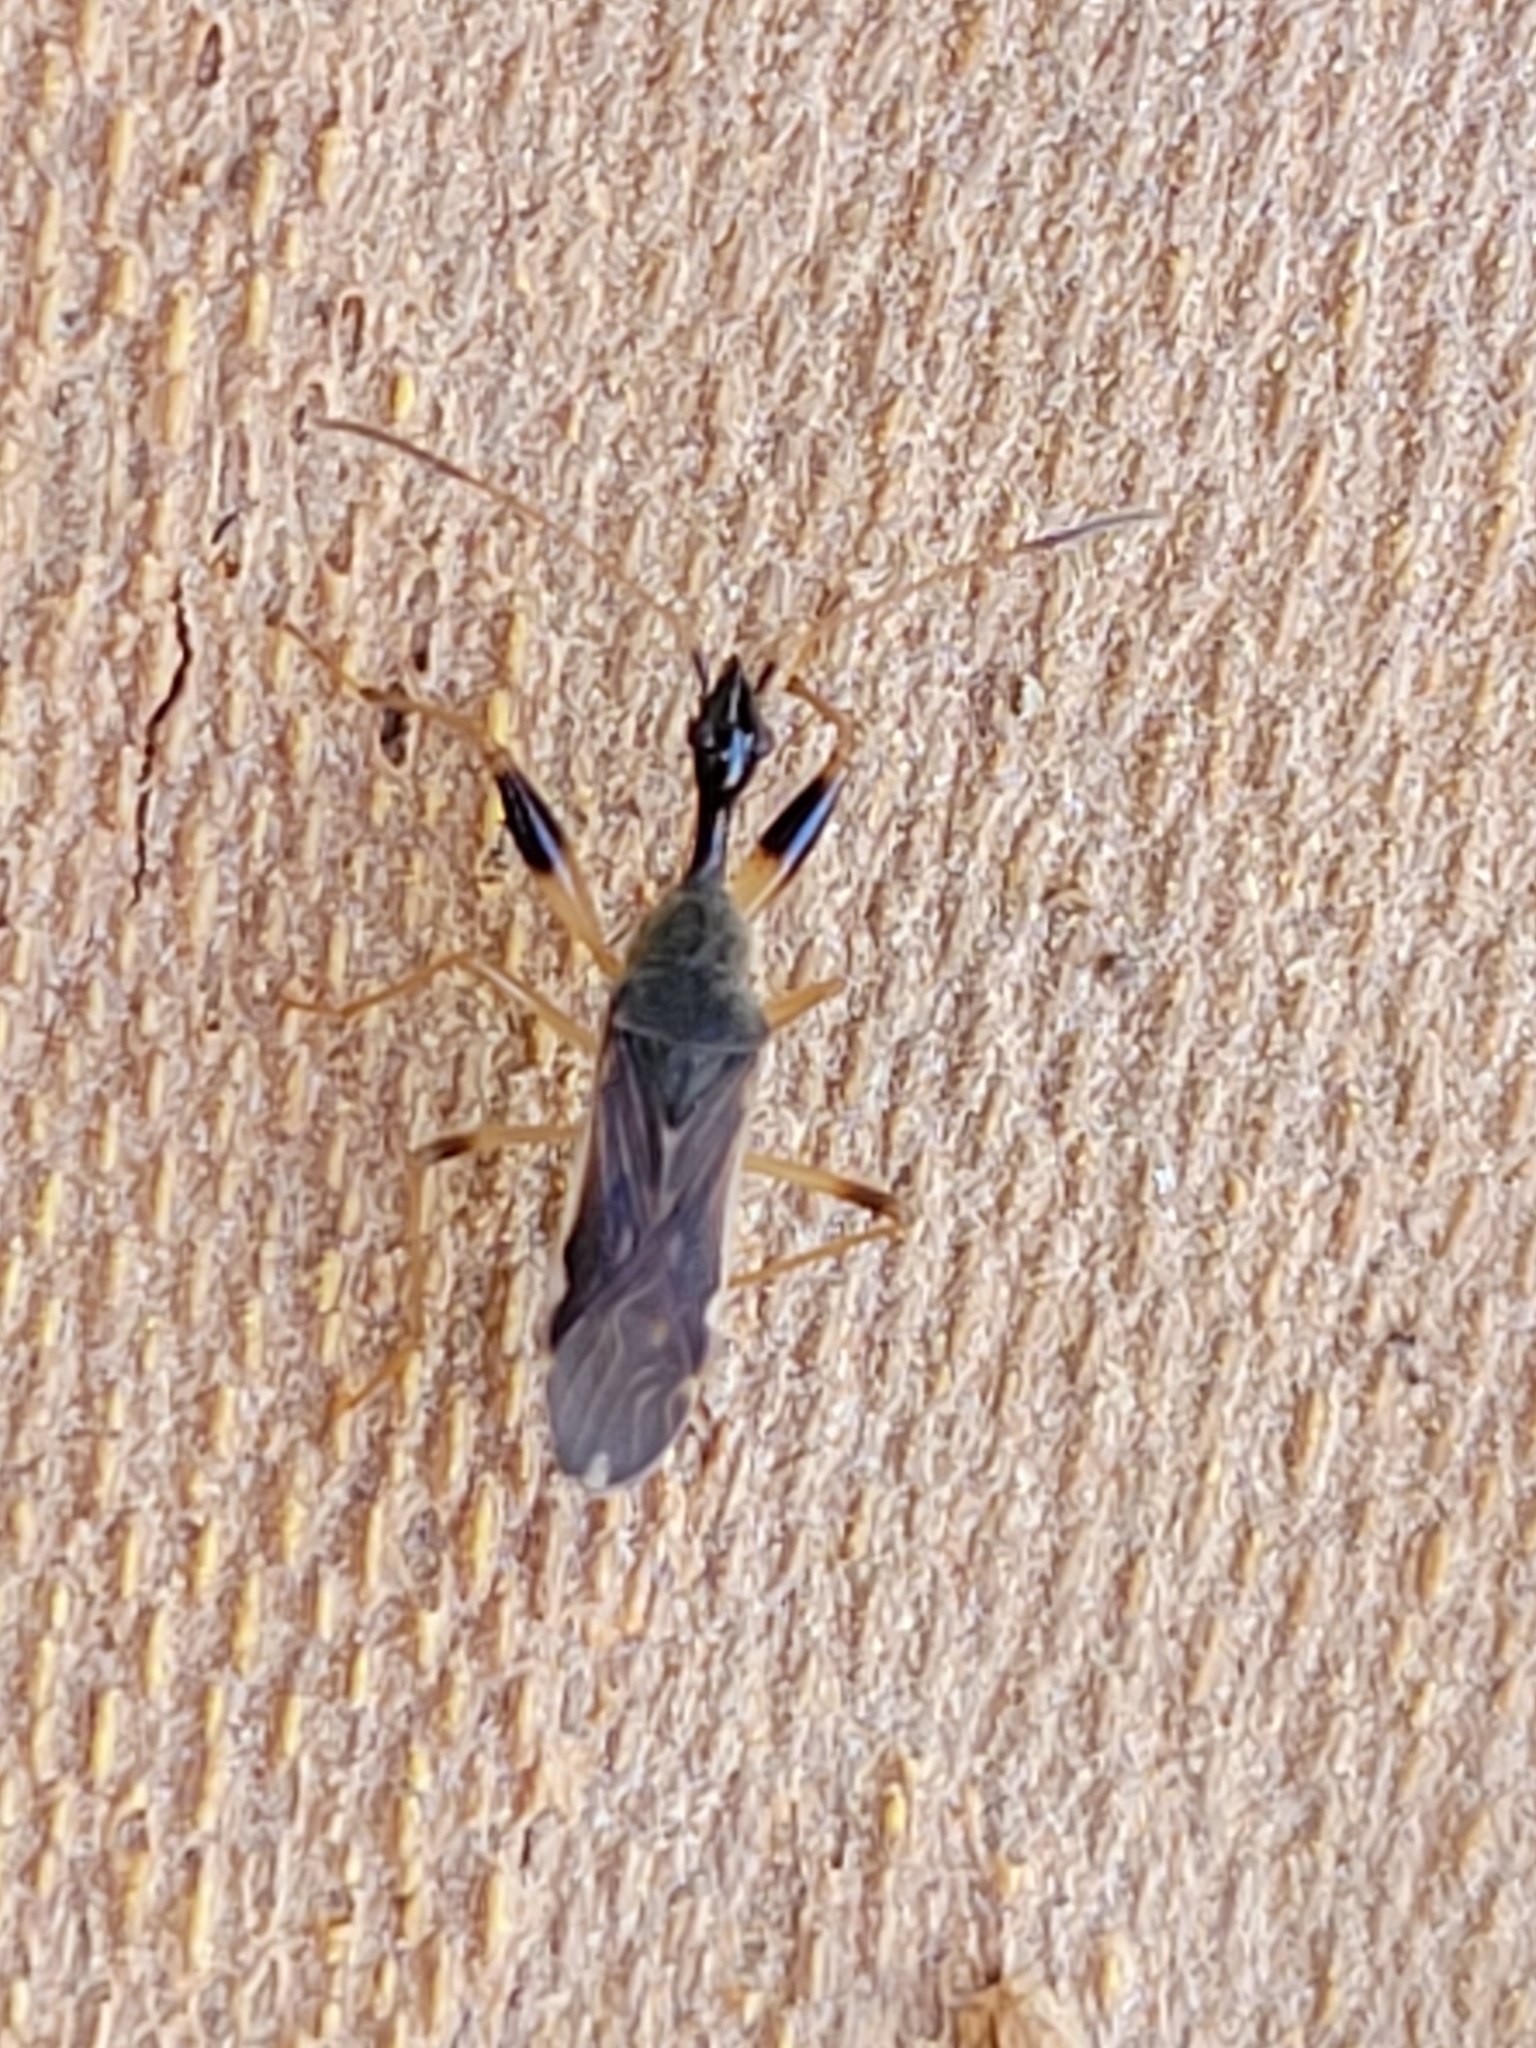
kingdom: Animalia
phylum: Arthropoda
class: Insecta
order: Hemiptera
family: Rhyparochromidae
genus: Myodocha
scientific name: Myodocha serripes
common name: Long-necked seed bug
